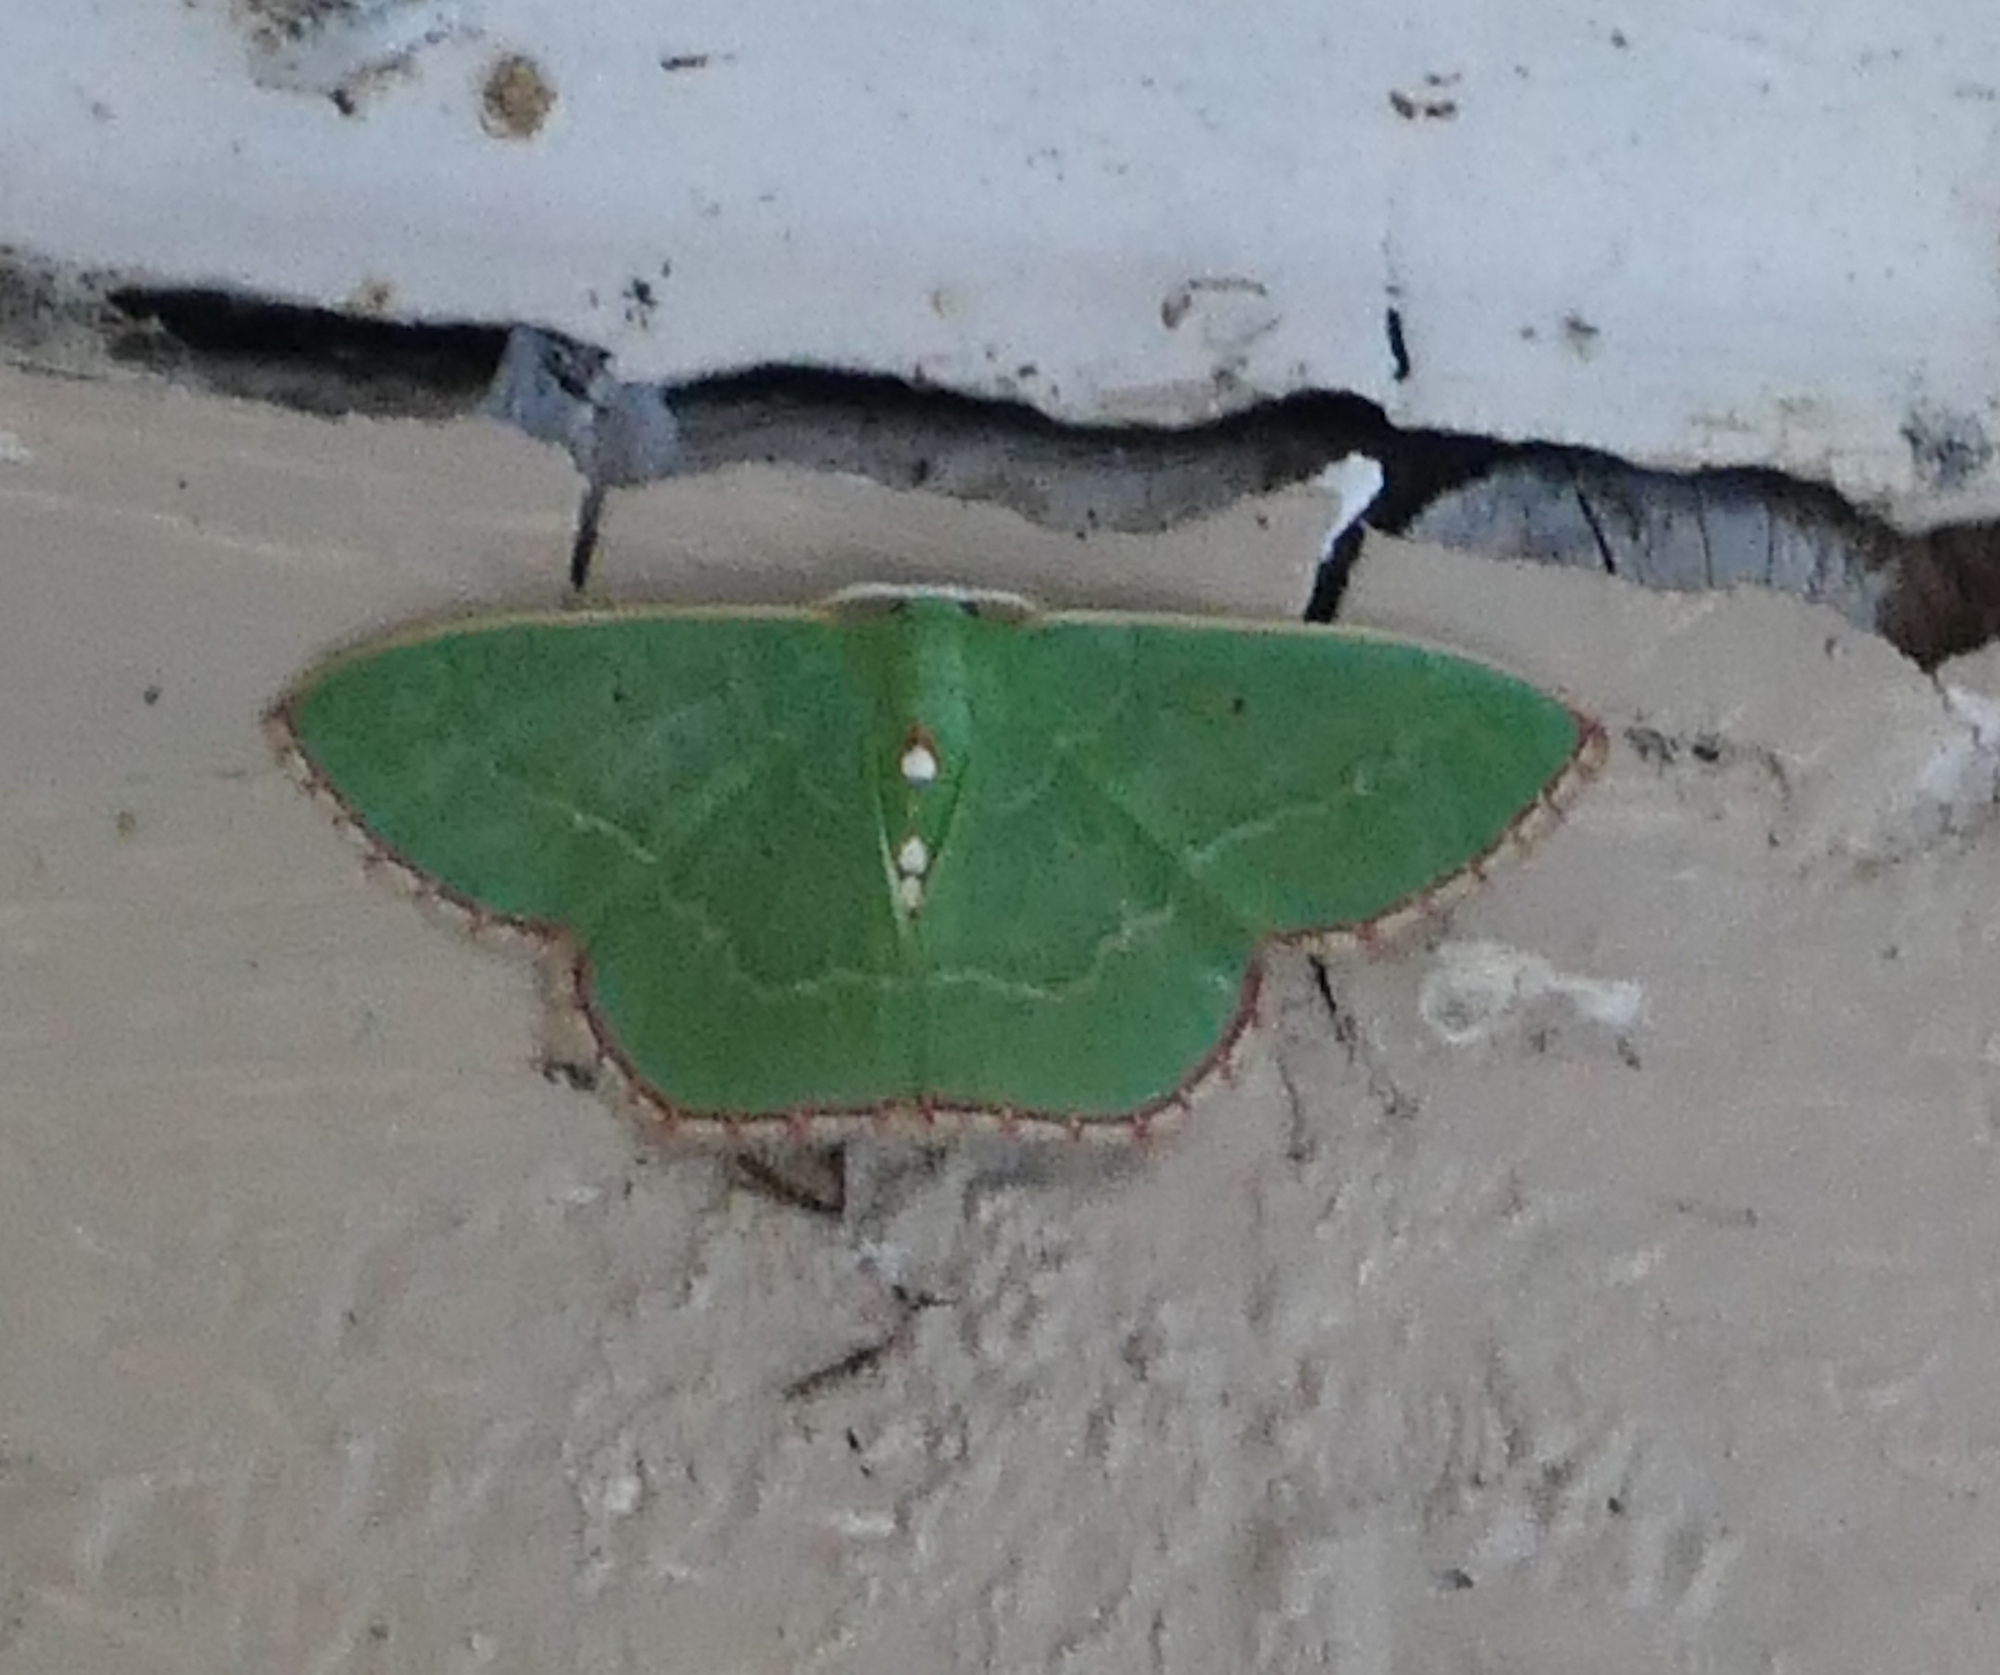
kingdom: Animalia
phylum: Arthropoda
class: Insecta
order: Lepidoptera
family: Geometridae
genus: Nemoria
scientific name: Nemoria lixaria
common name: Red-bordered emerald
